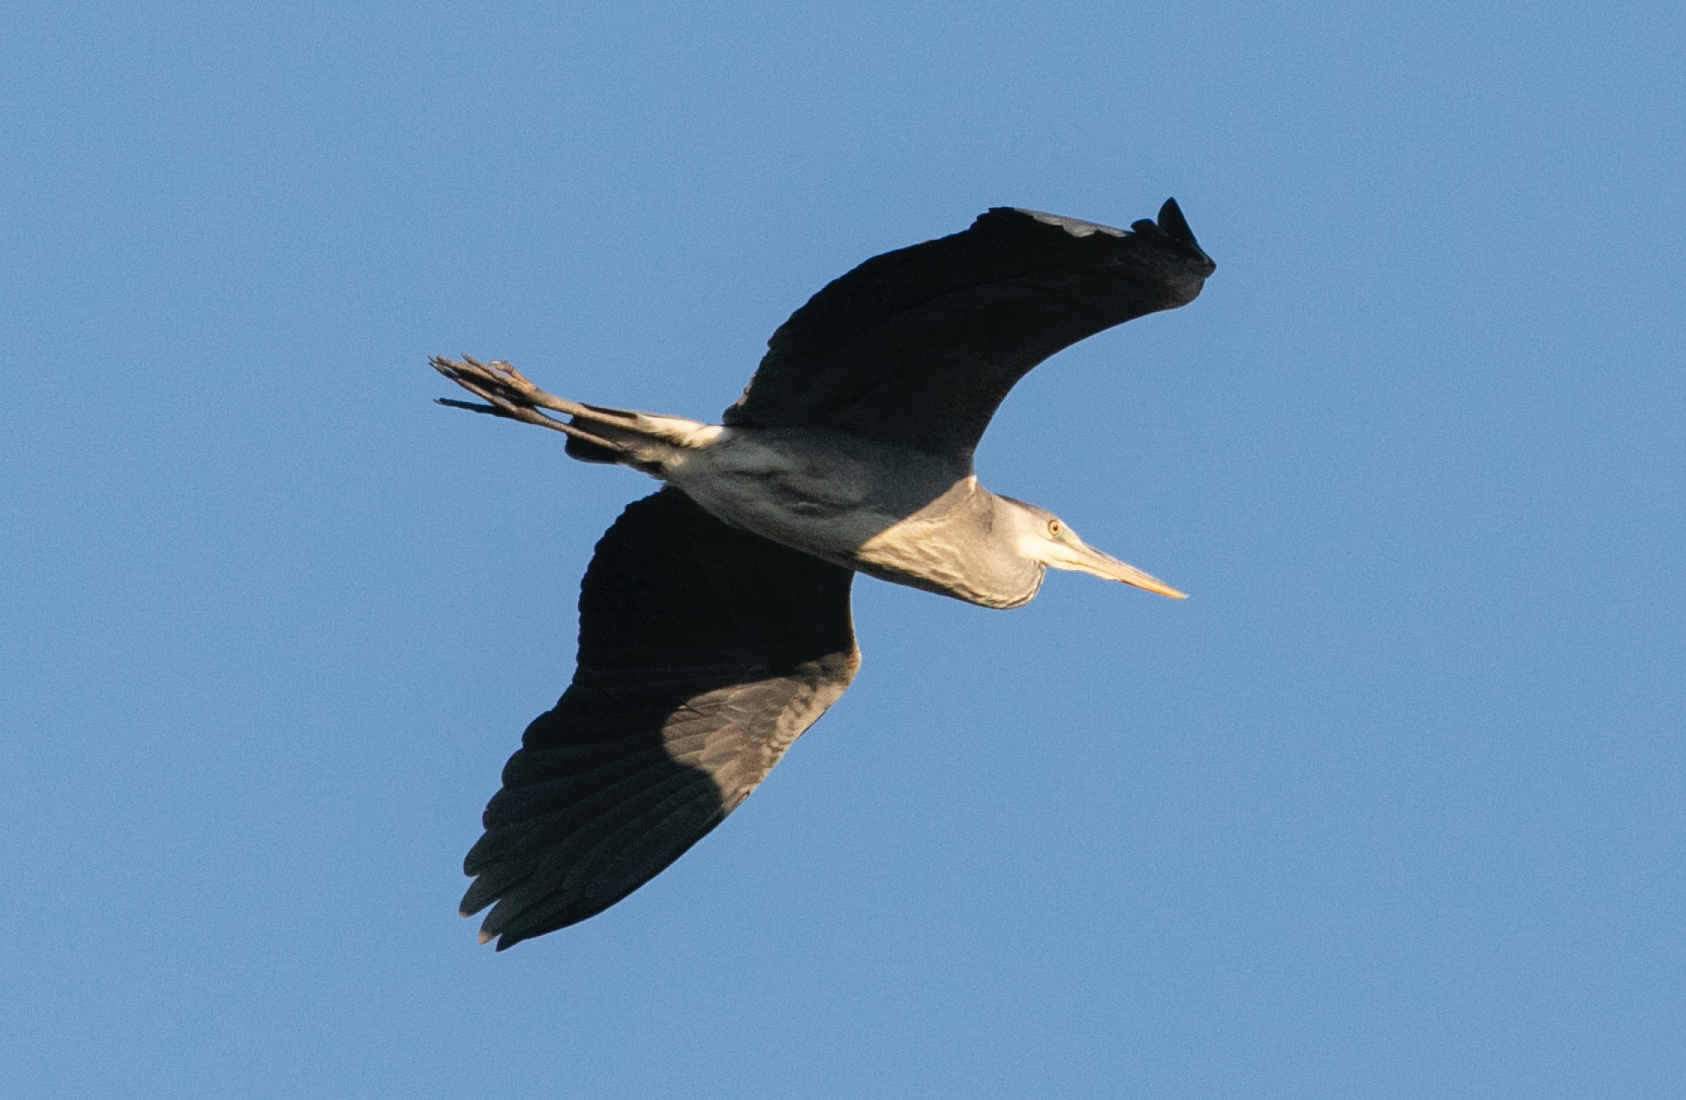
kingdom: Animalia
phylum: Chordata
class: Aves
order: Pelecaniformes
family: Ardeidae
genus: Ardea
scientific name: Ardea cinerea
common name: Grey heron
